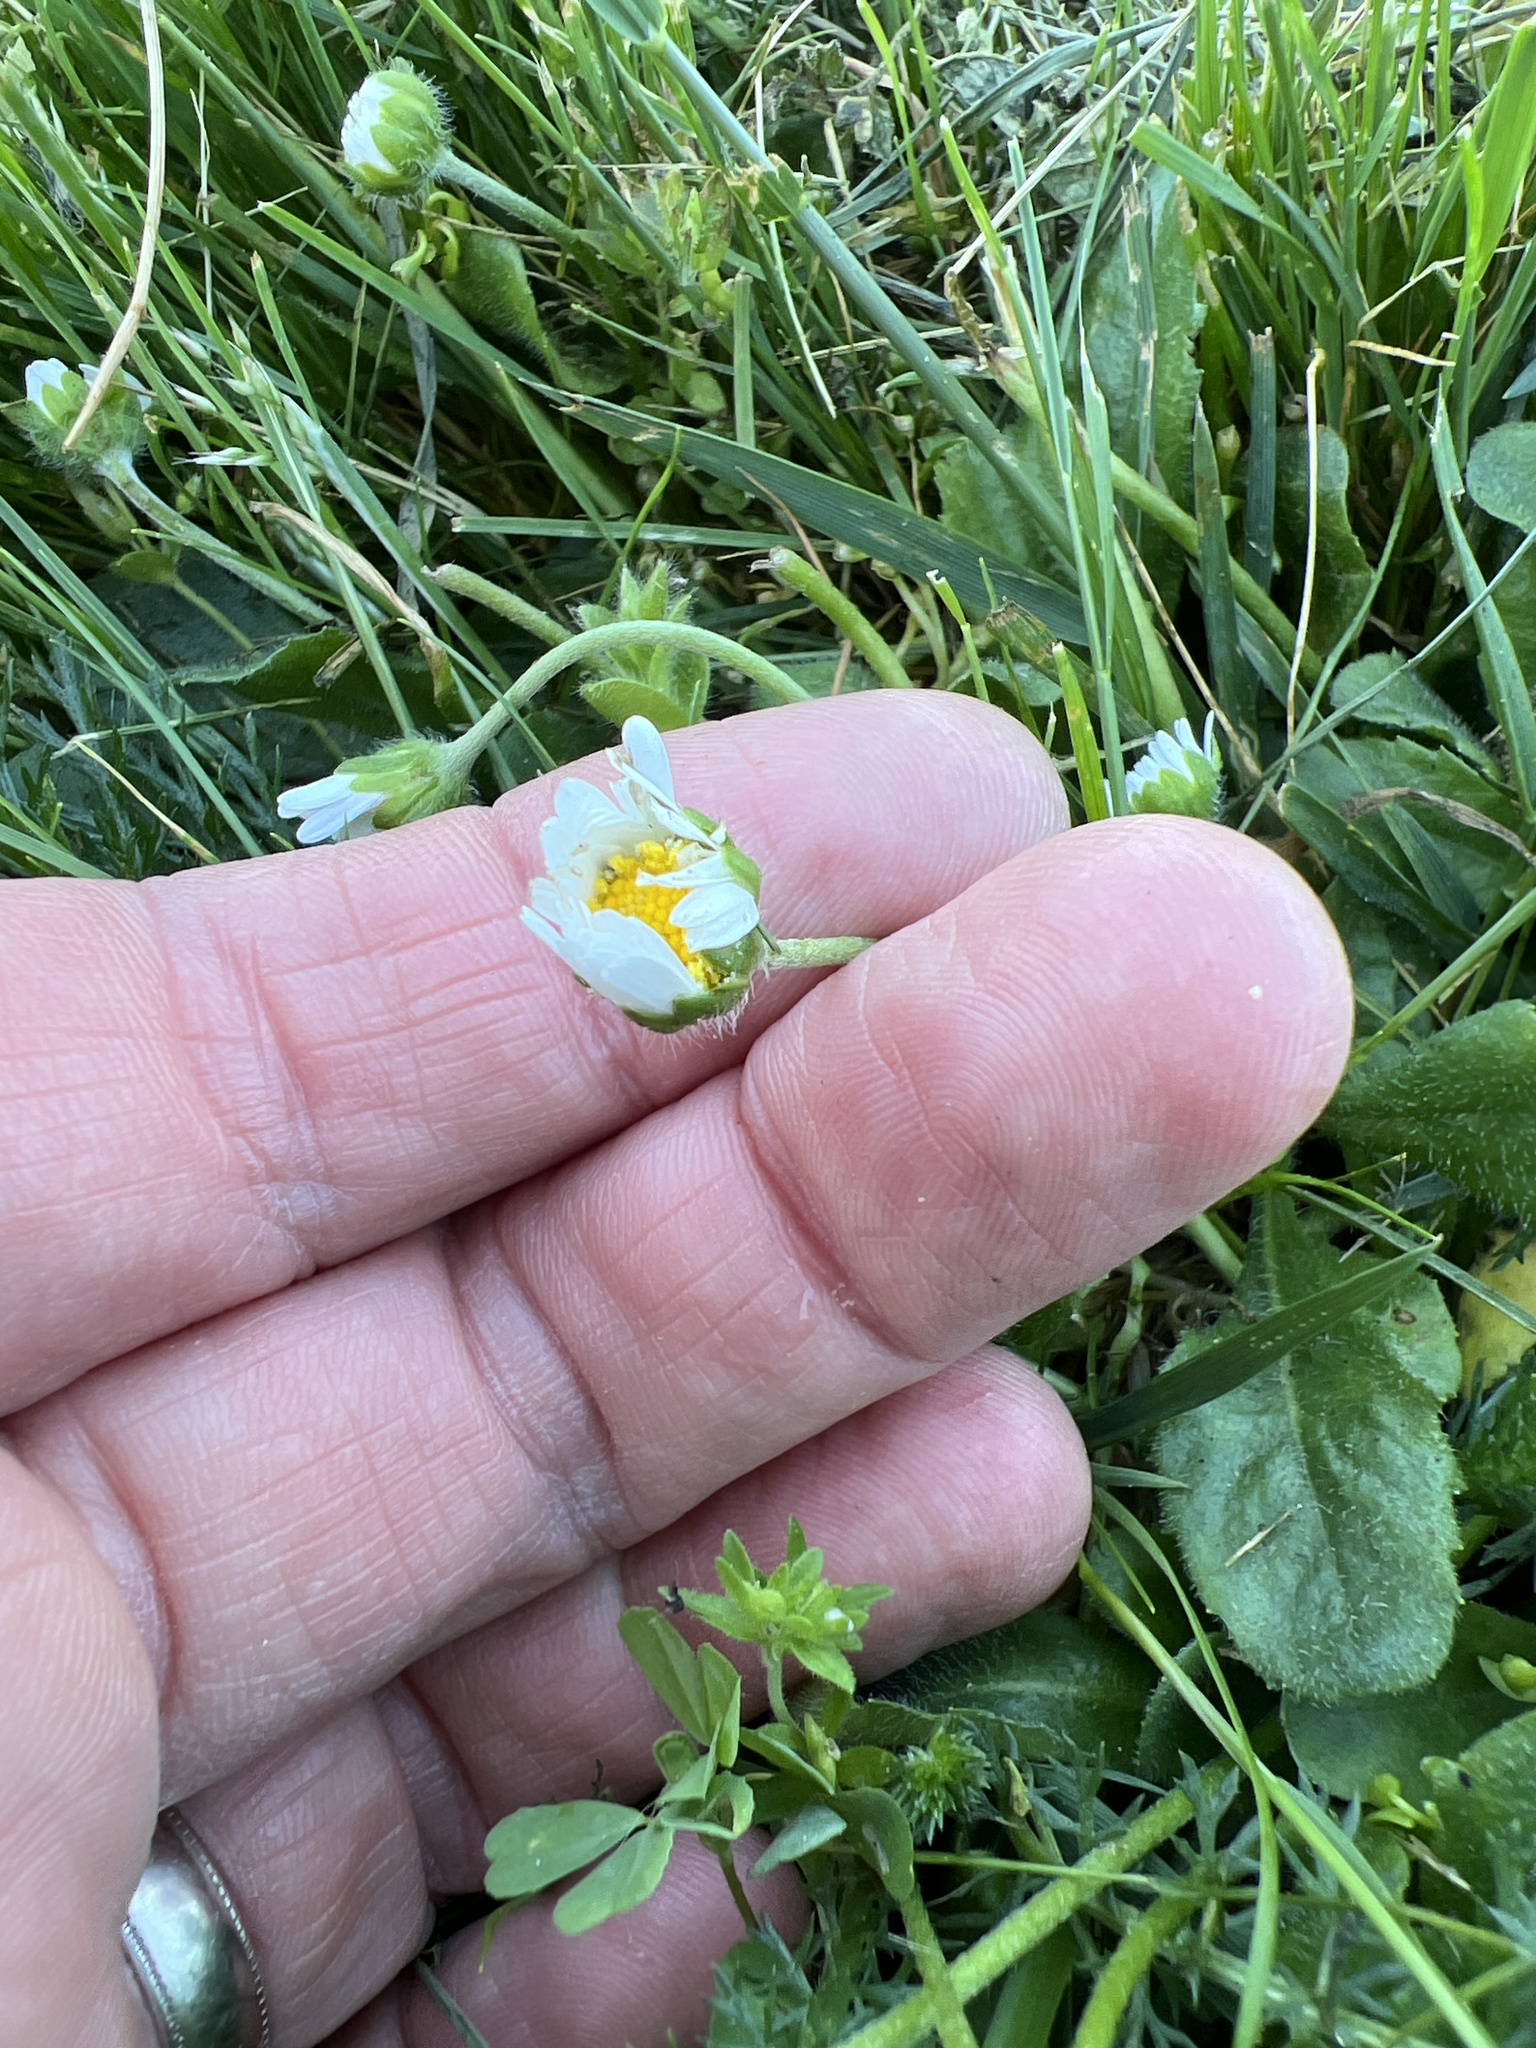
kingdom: Plantae
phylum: Tracheophyta
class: Magnoliopsida
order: Asterales
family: Asteraceae
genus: Bellis
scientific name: Bellis perennis
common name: Lawndaisy
